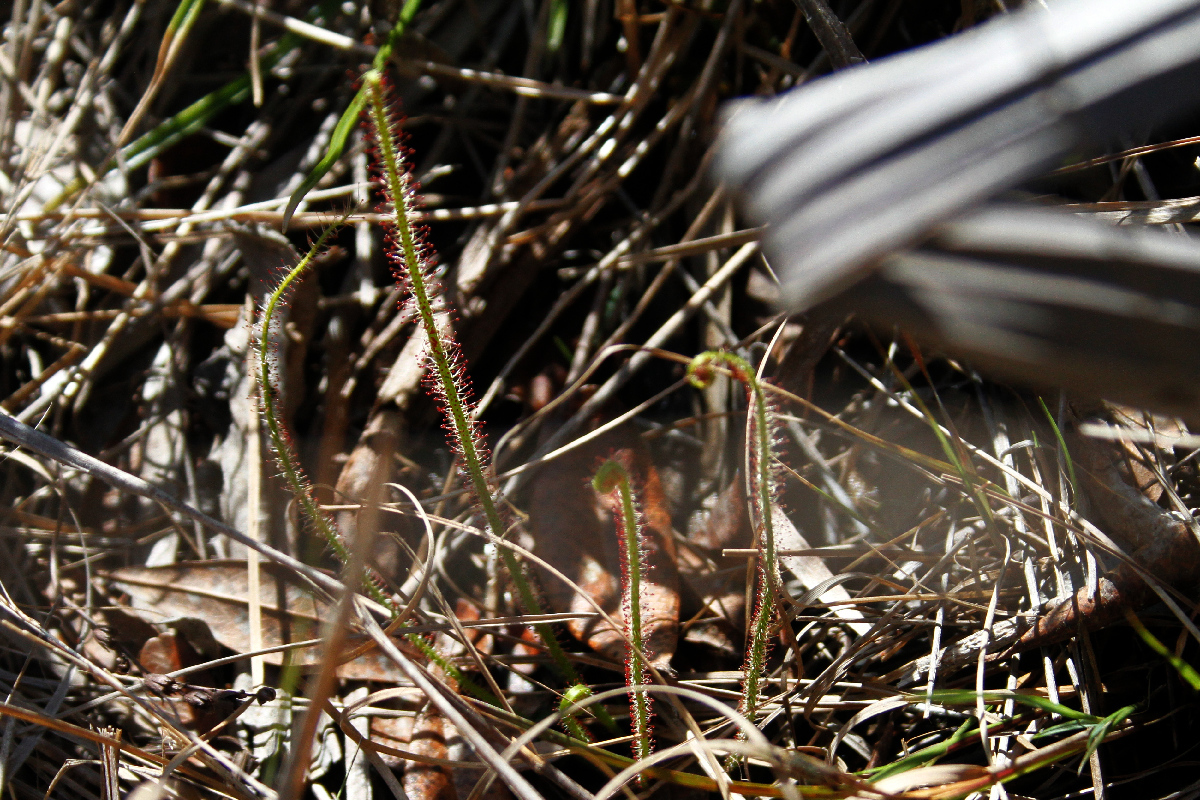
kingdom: Plantae
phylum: Tracheophyta
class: Magnoliopsida
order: Caryophyllales
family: Droseraceae
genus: Drosera
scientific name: Drosera filiformis
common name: Dew-thread
